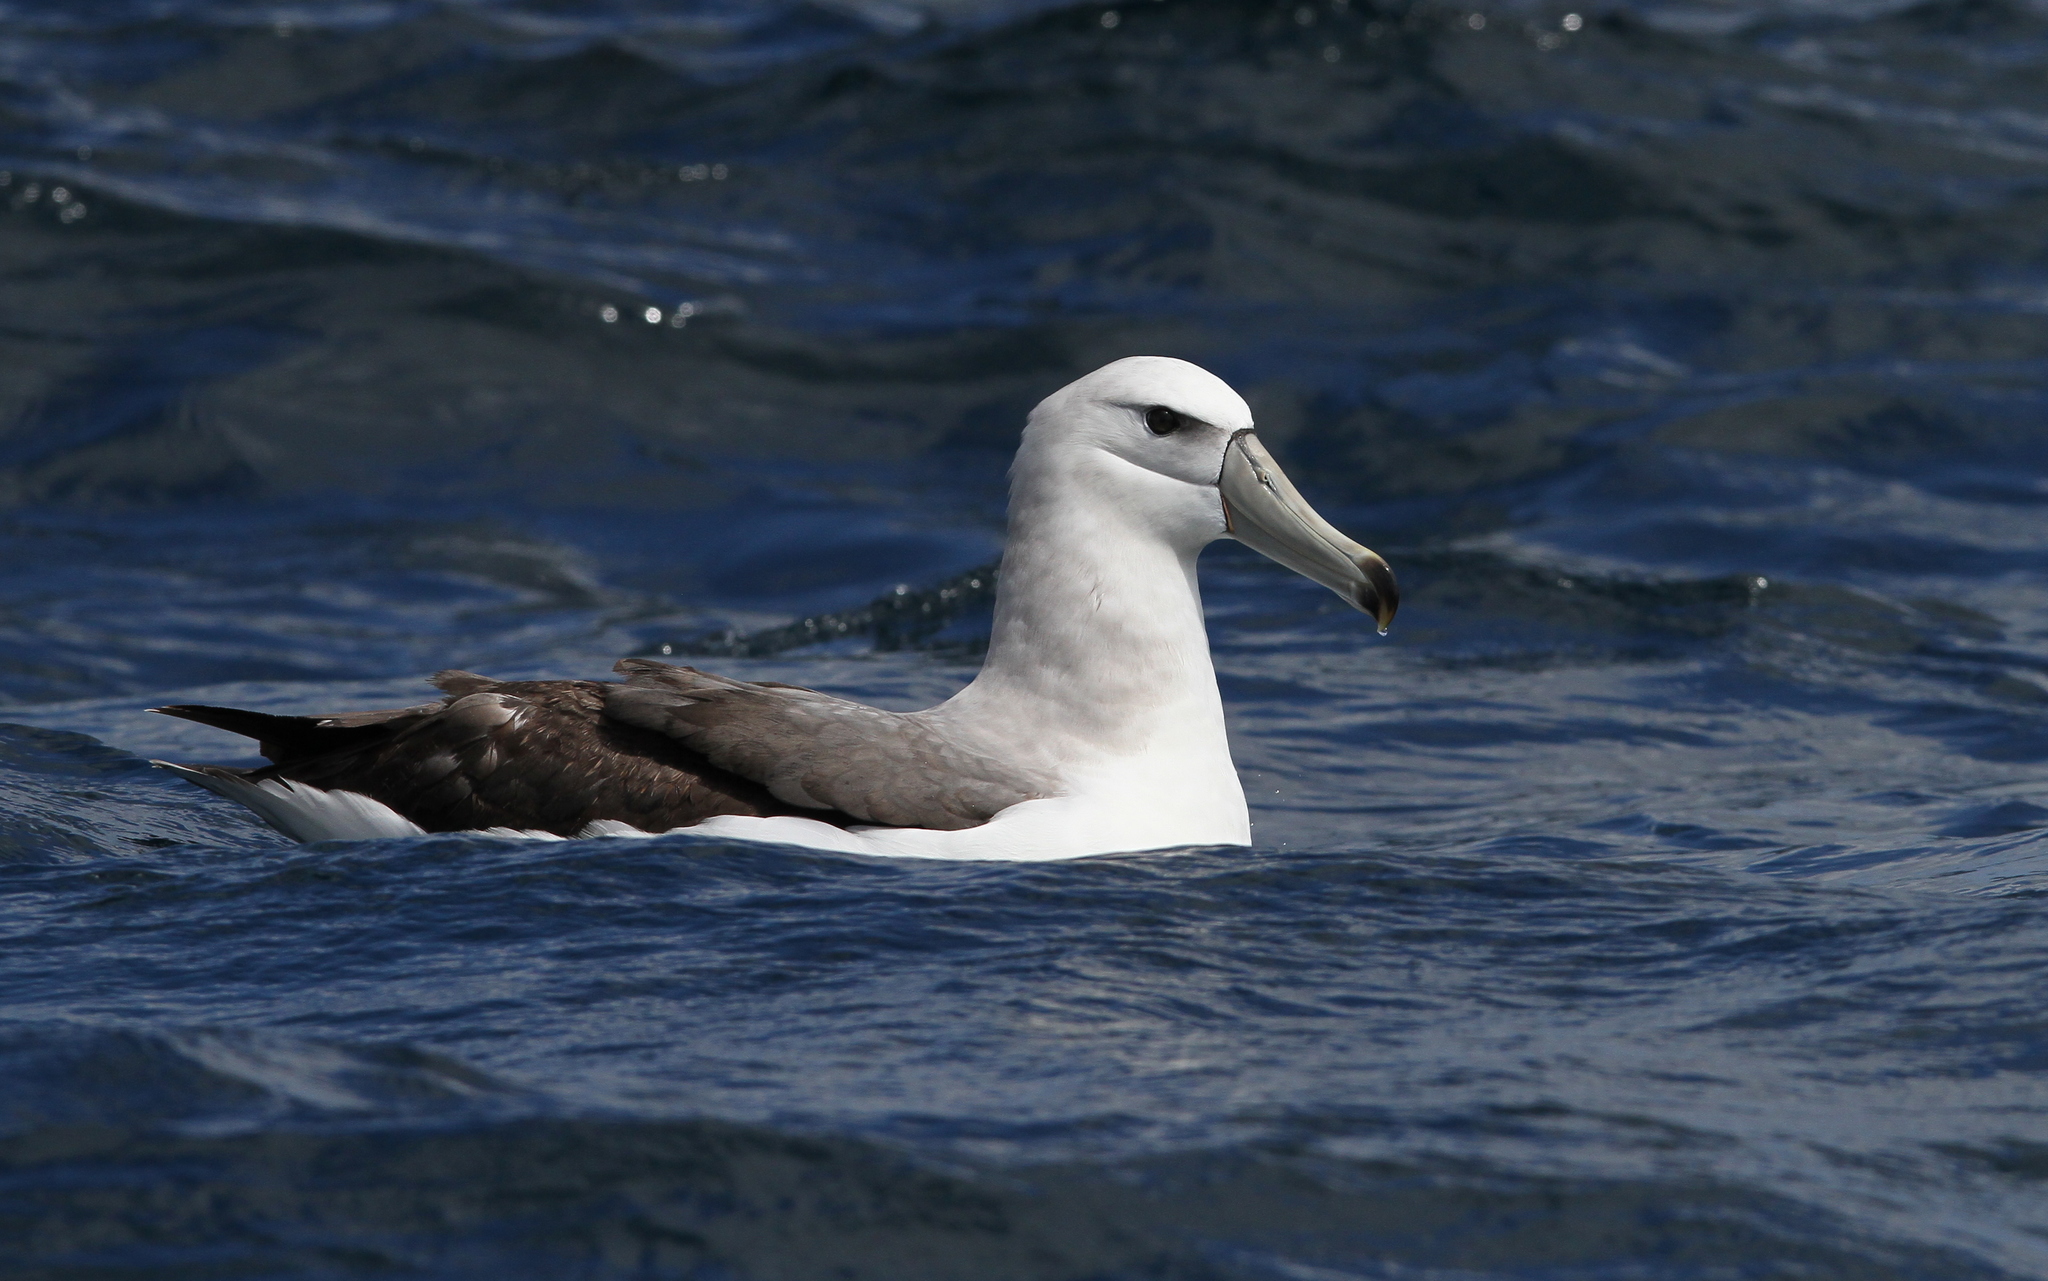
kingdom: Animalia
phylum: Chordata
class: Aves
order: Procellariiformes
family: Diomedeidae
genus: Thalassarche
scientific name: Thalassarche cauta
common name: Shy albatross
